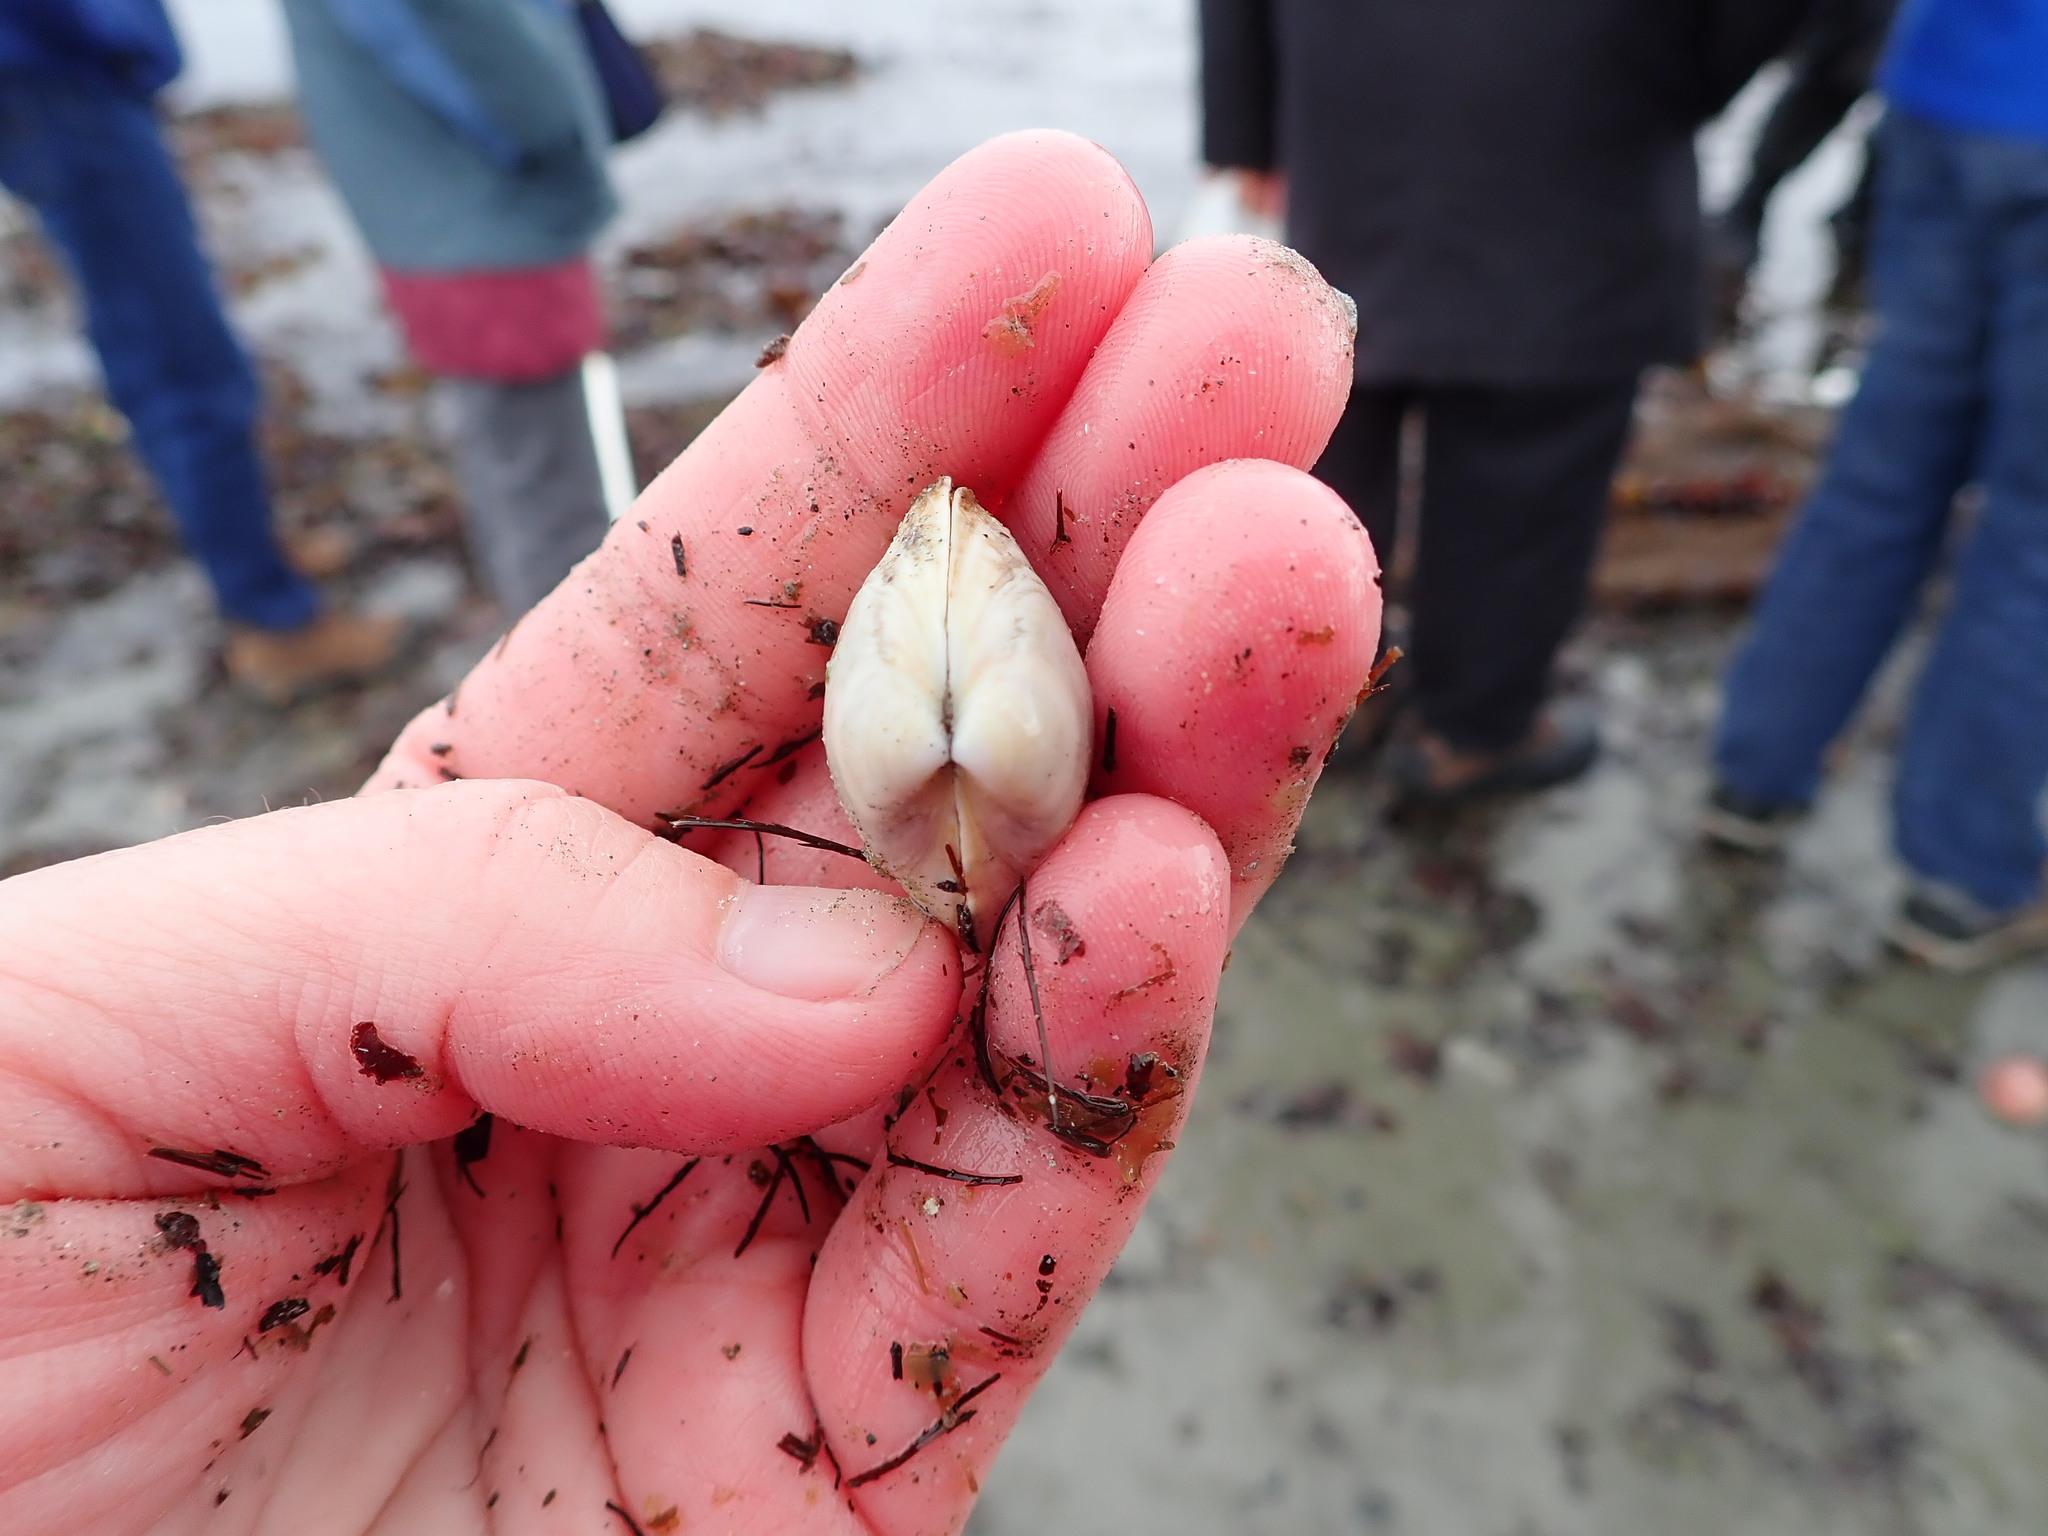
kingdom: Animalia
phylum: Mollusca
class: Bivalvia
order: Venerida
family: Mactridae
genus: Spisula
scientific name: Spisula solidissima
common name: Atlantic surf clam
